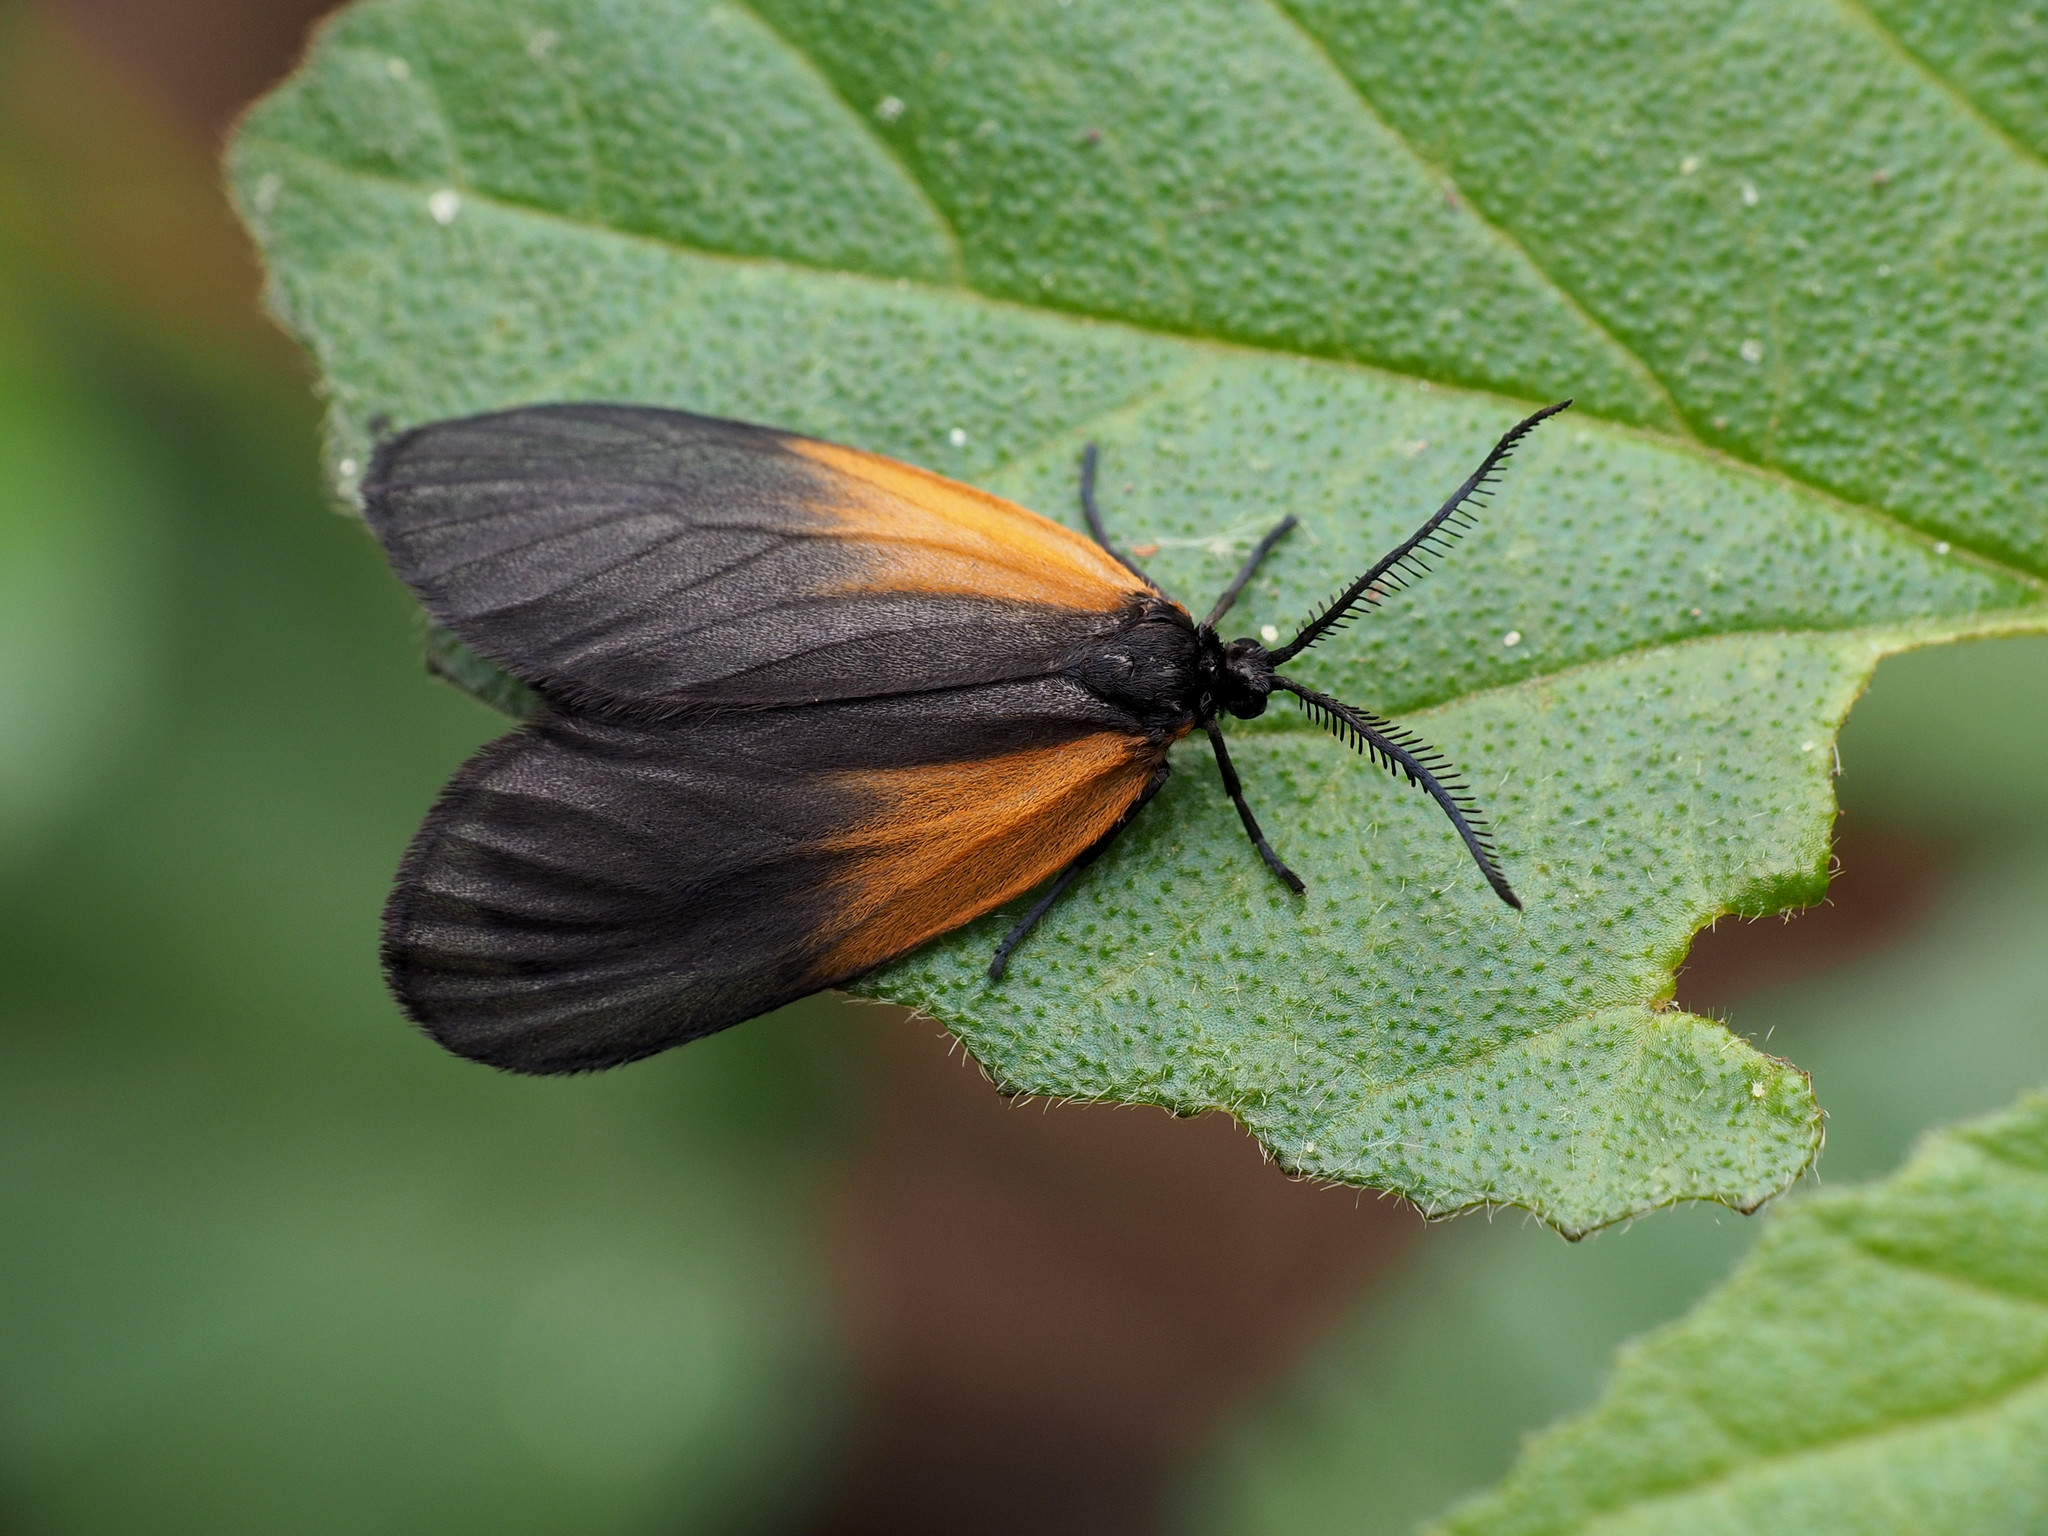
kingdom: Animalia
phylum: Arthropoda
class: Insecta
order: Lepidoptera
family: Zygaenidae
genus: Malthaca
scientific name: Malthaca dimidiata
